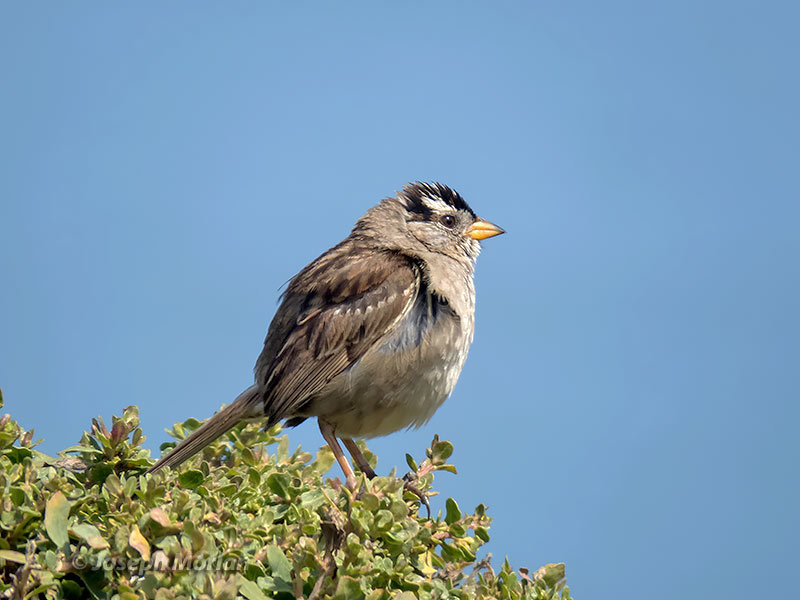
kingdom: Animalia
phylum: Chordata
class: Aves
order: Passeriformes
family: Passerellidae
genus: Zonotrichia
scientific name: Zonotrichia leucophrys
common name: White-crowned sparrow
